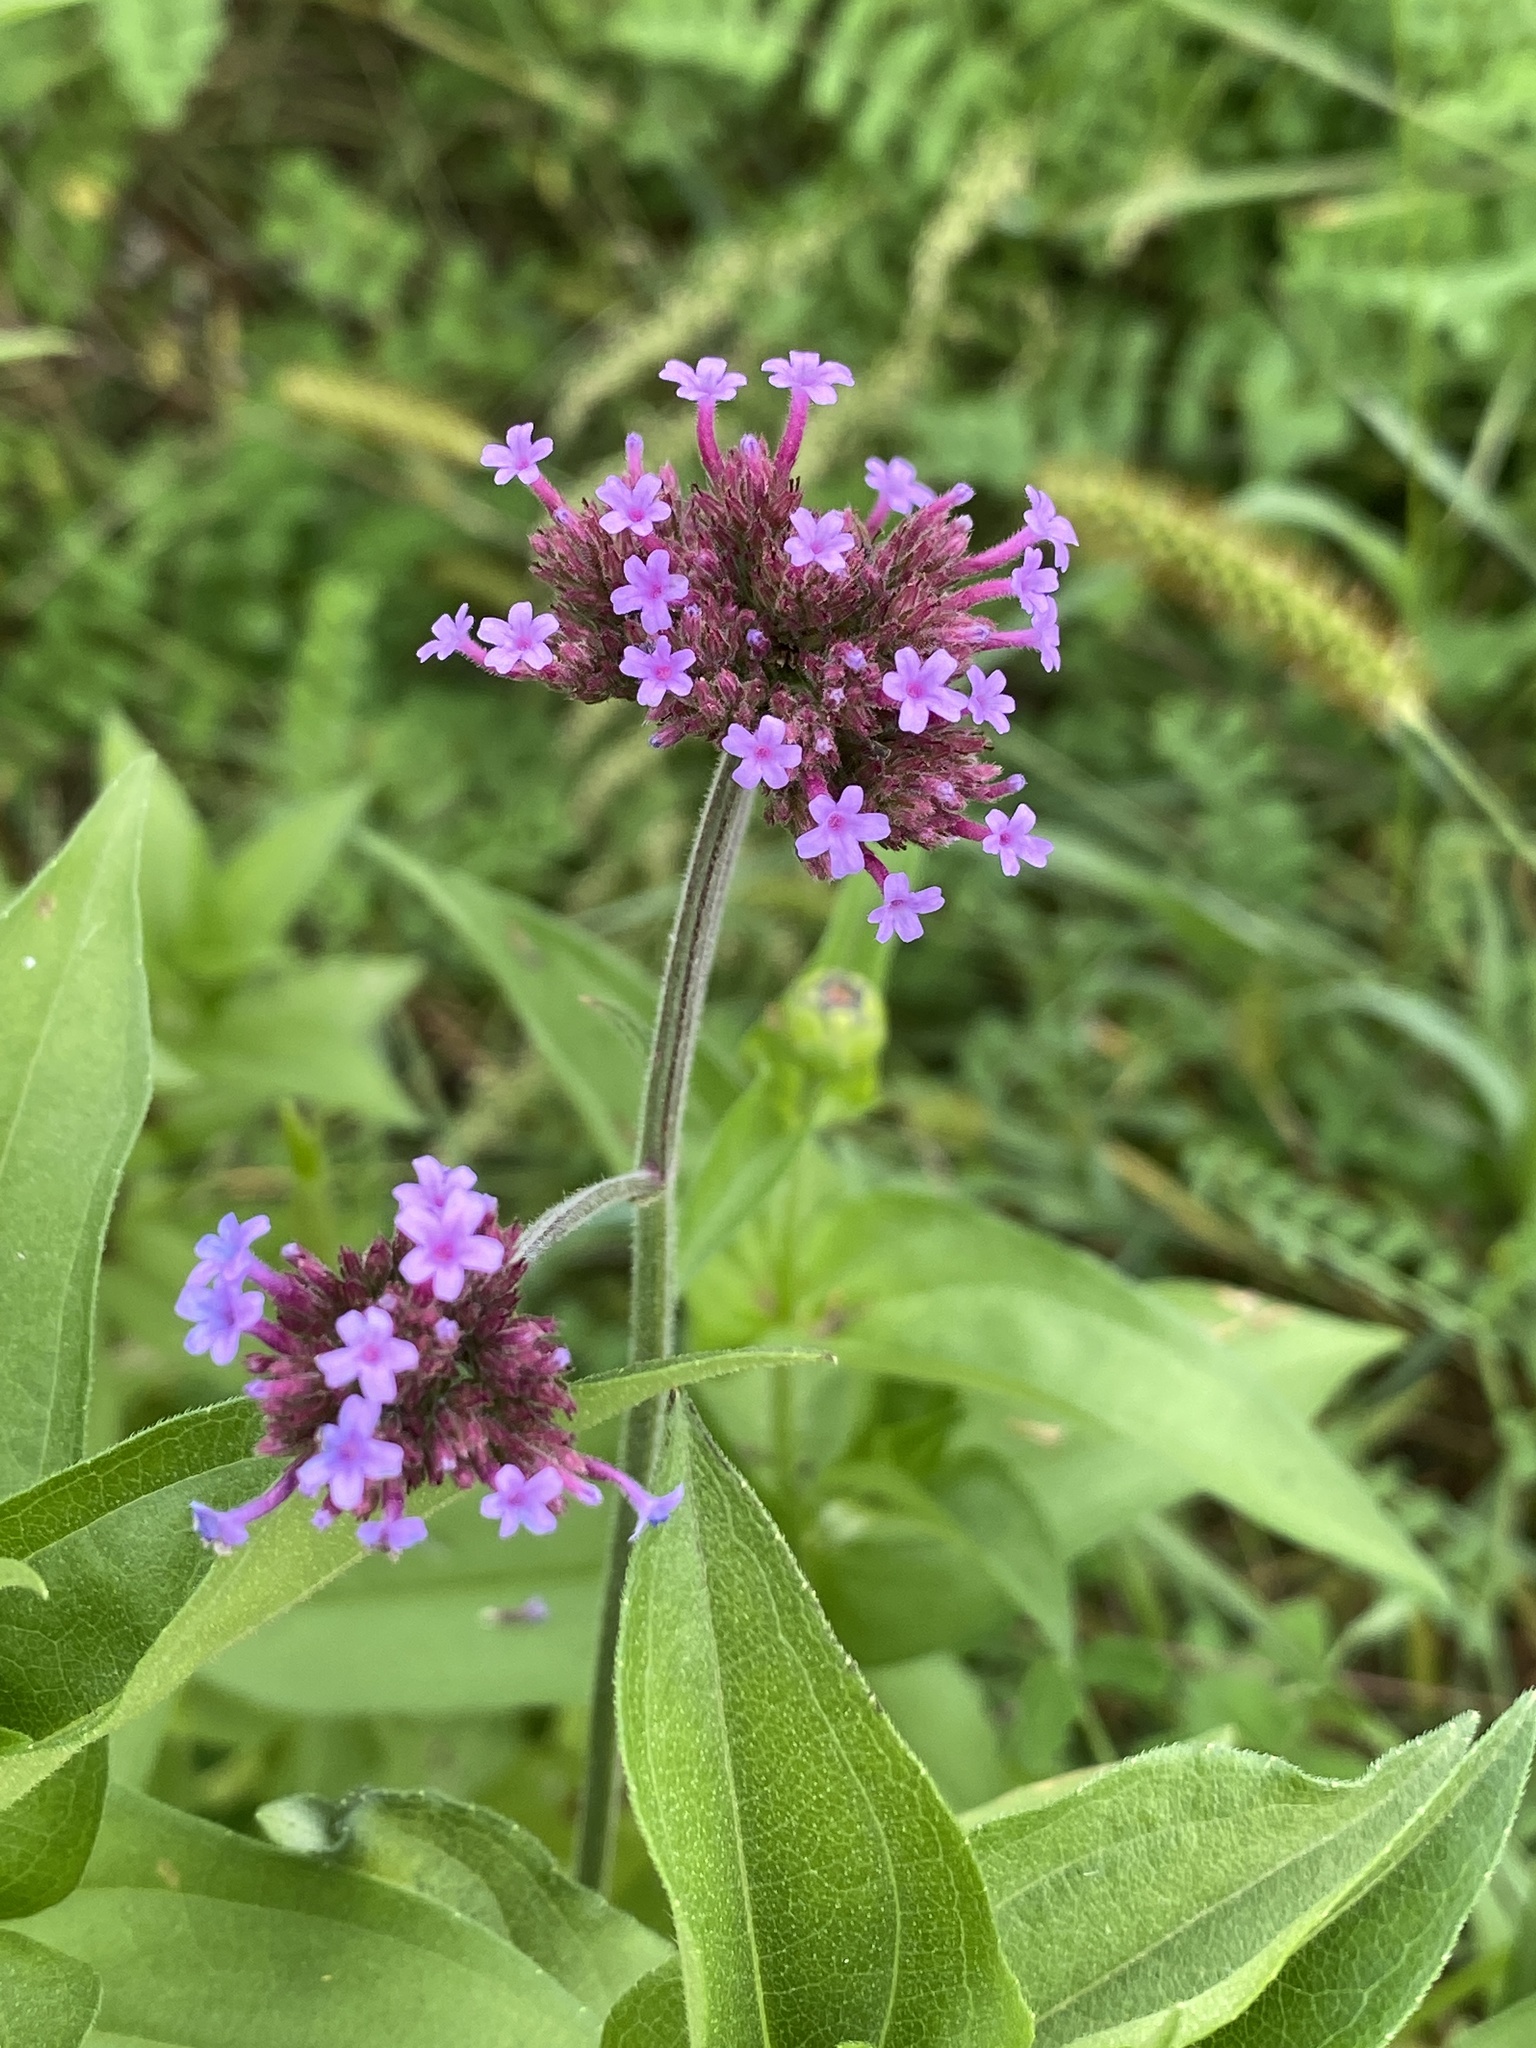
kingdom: Plantae
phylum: Tracheophyta
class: Magnoliopsida
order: Lamiales
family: Verbenaceae
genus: Verbena
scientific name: Verbena bonariensis
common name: Purpletop vervain
